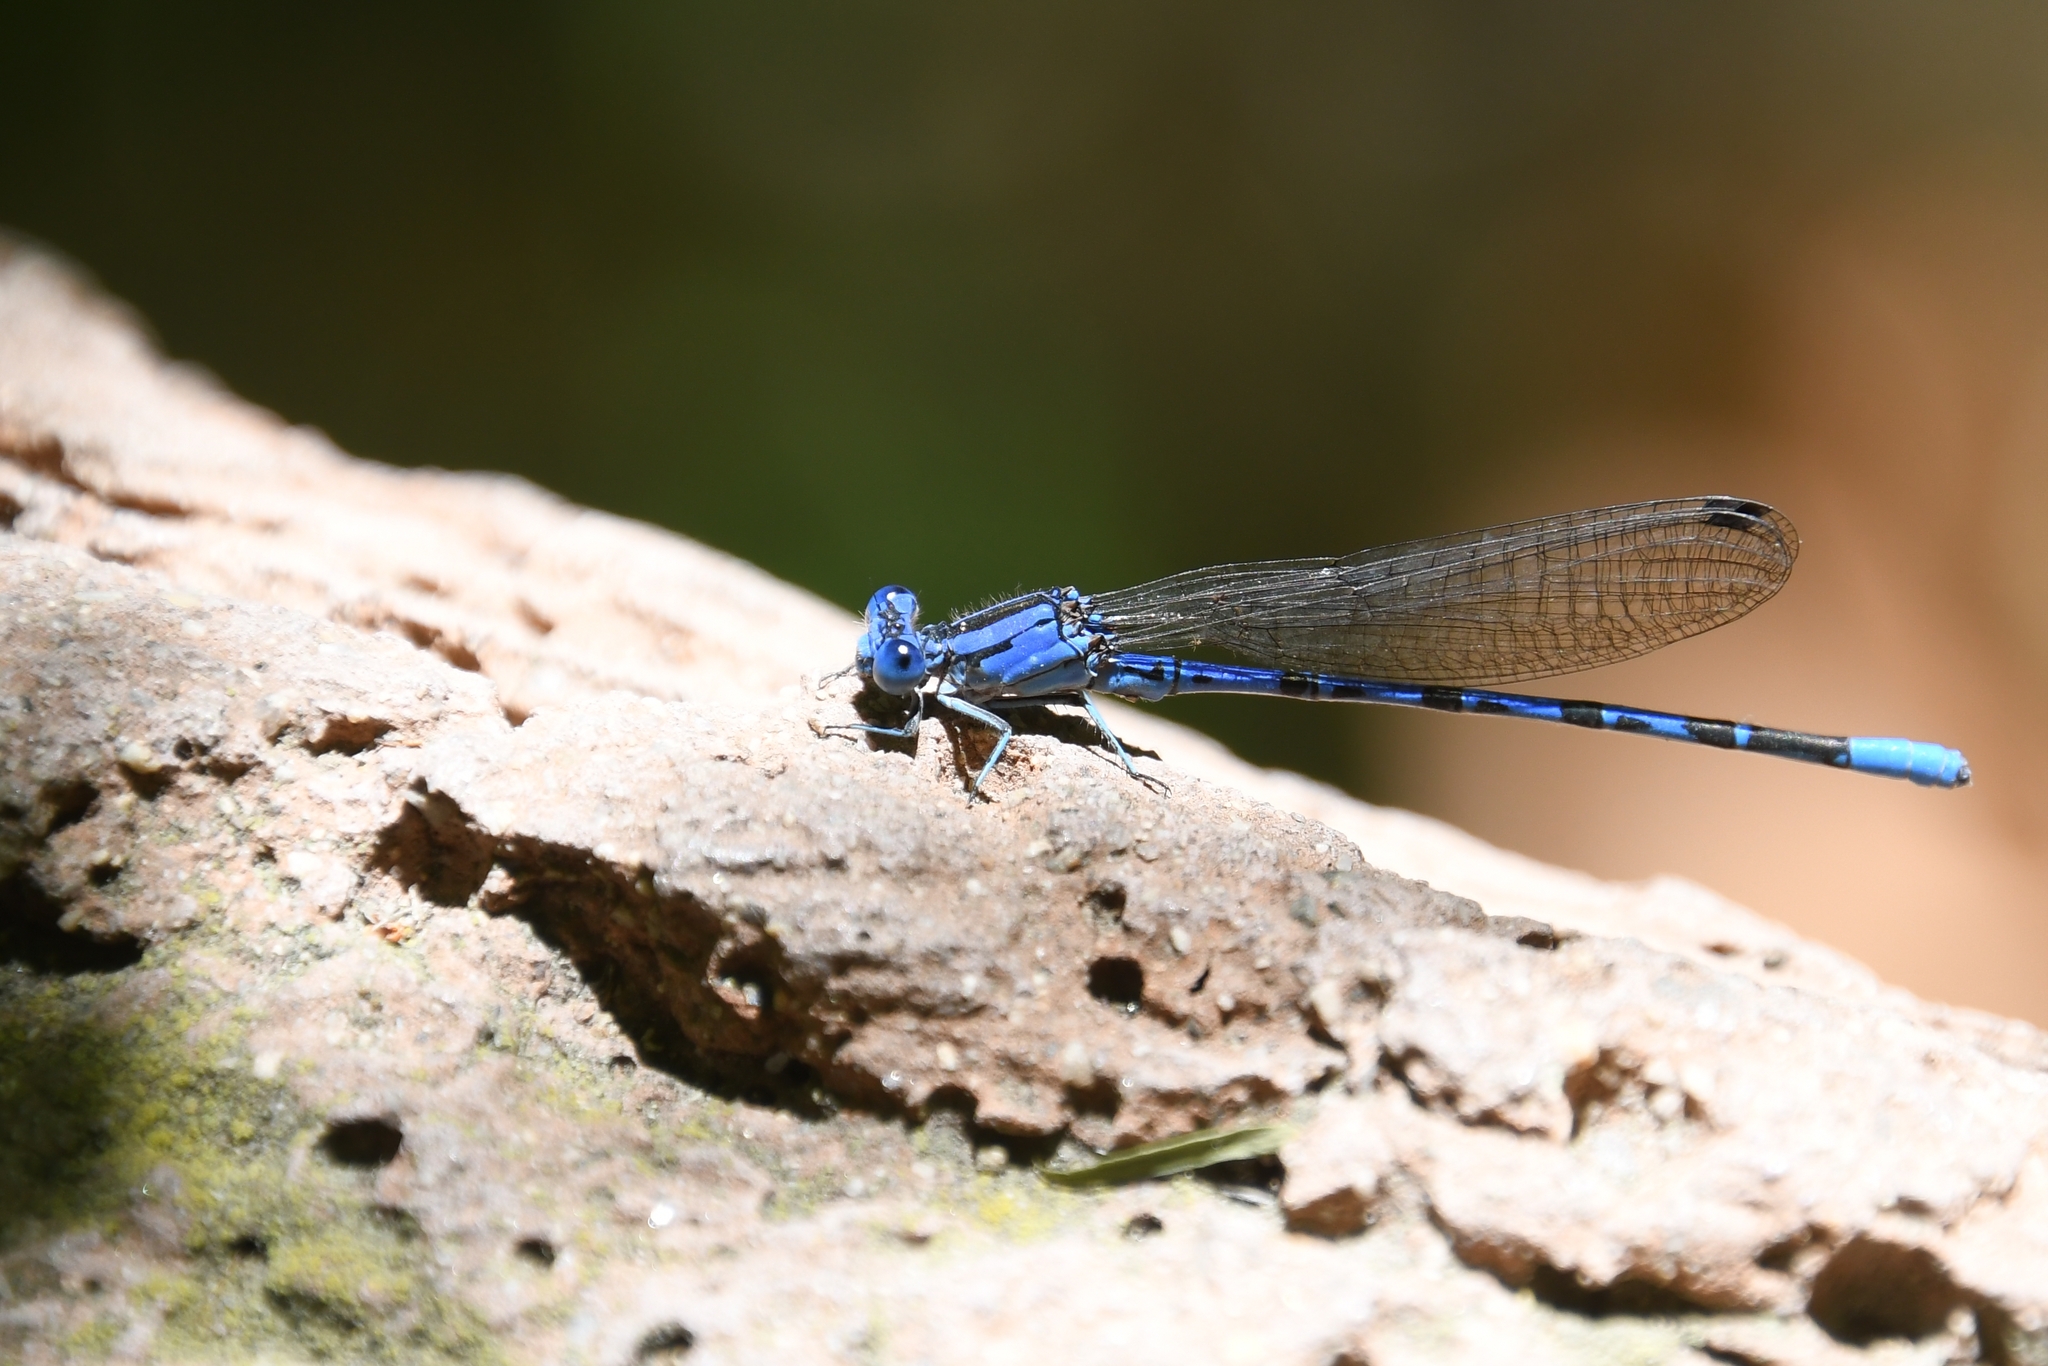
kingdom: Animalia
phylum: Arthropoda
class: Insecta
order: Odonata
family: Coenagrionidae
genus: Argia
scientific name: Argia vivida
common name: Vivid dancer
